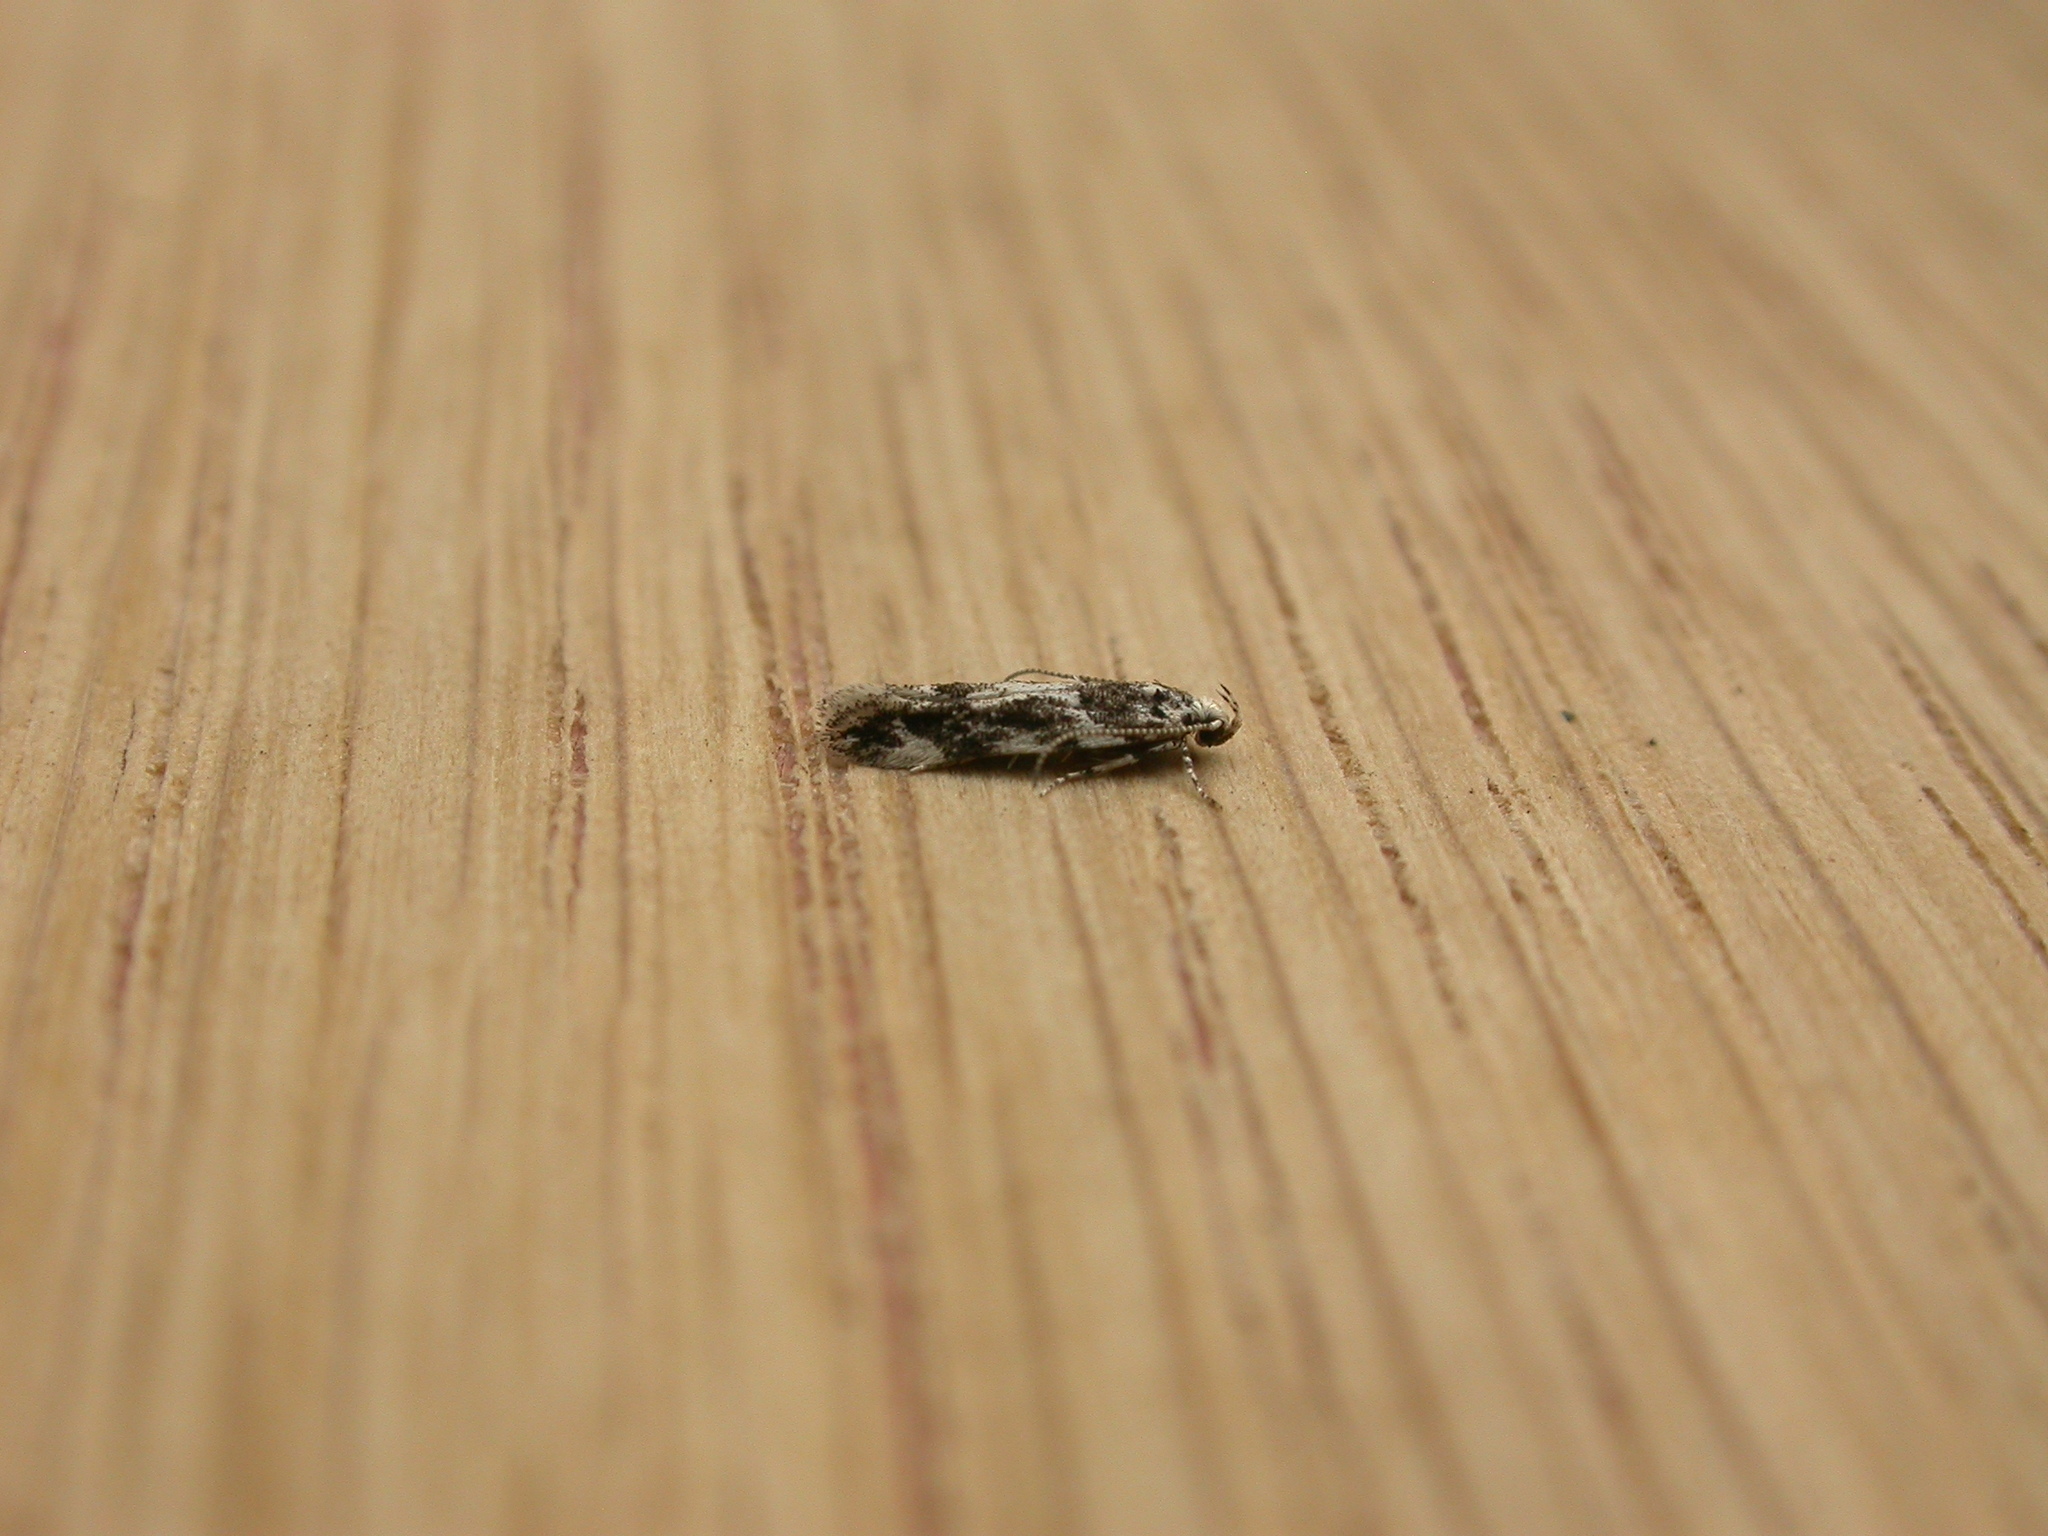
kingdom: Animalia
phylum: Arthropoda
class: Insecta
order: Lepidoptera
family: Gelechiidae
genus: Parachronistis
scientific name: Parachronistis albiceps
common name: Wood groundling
